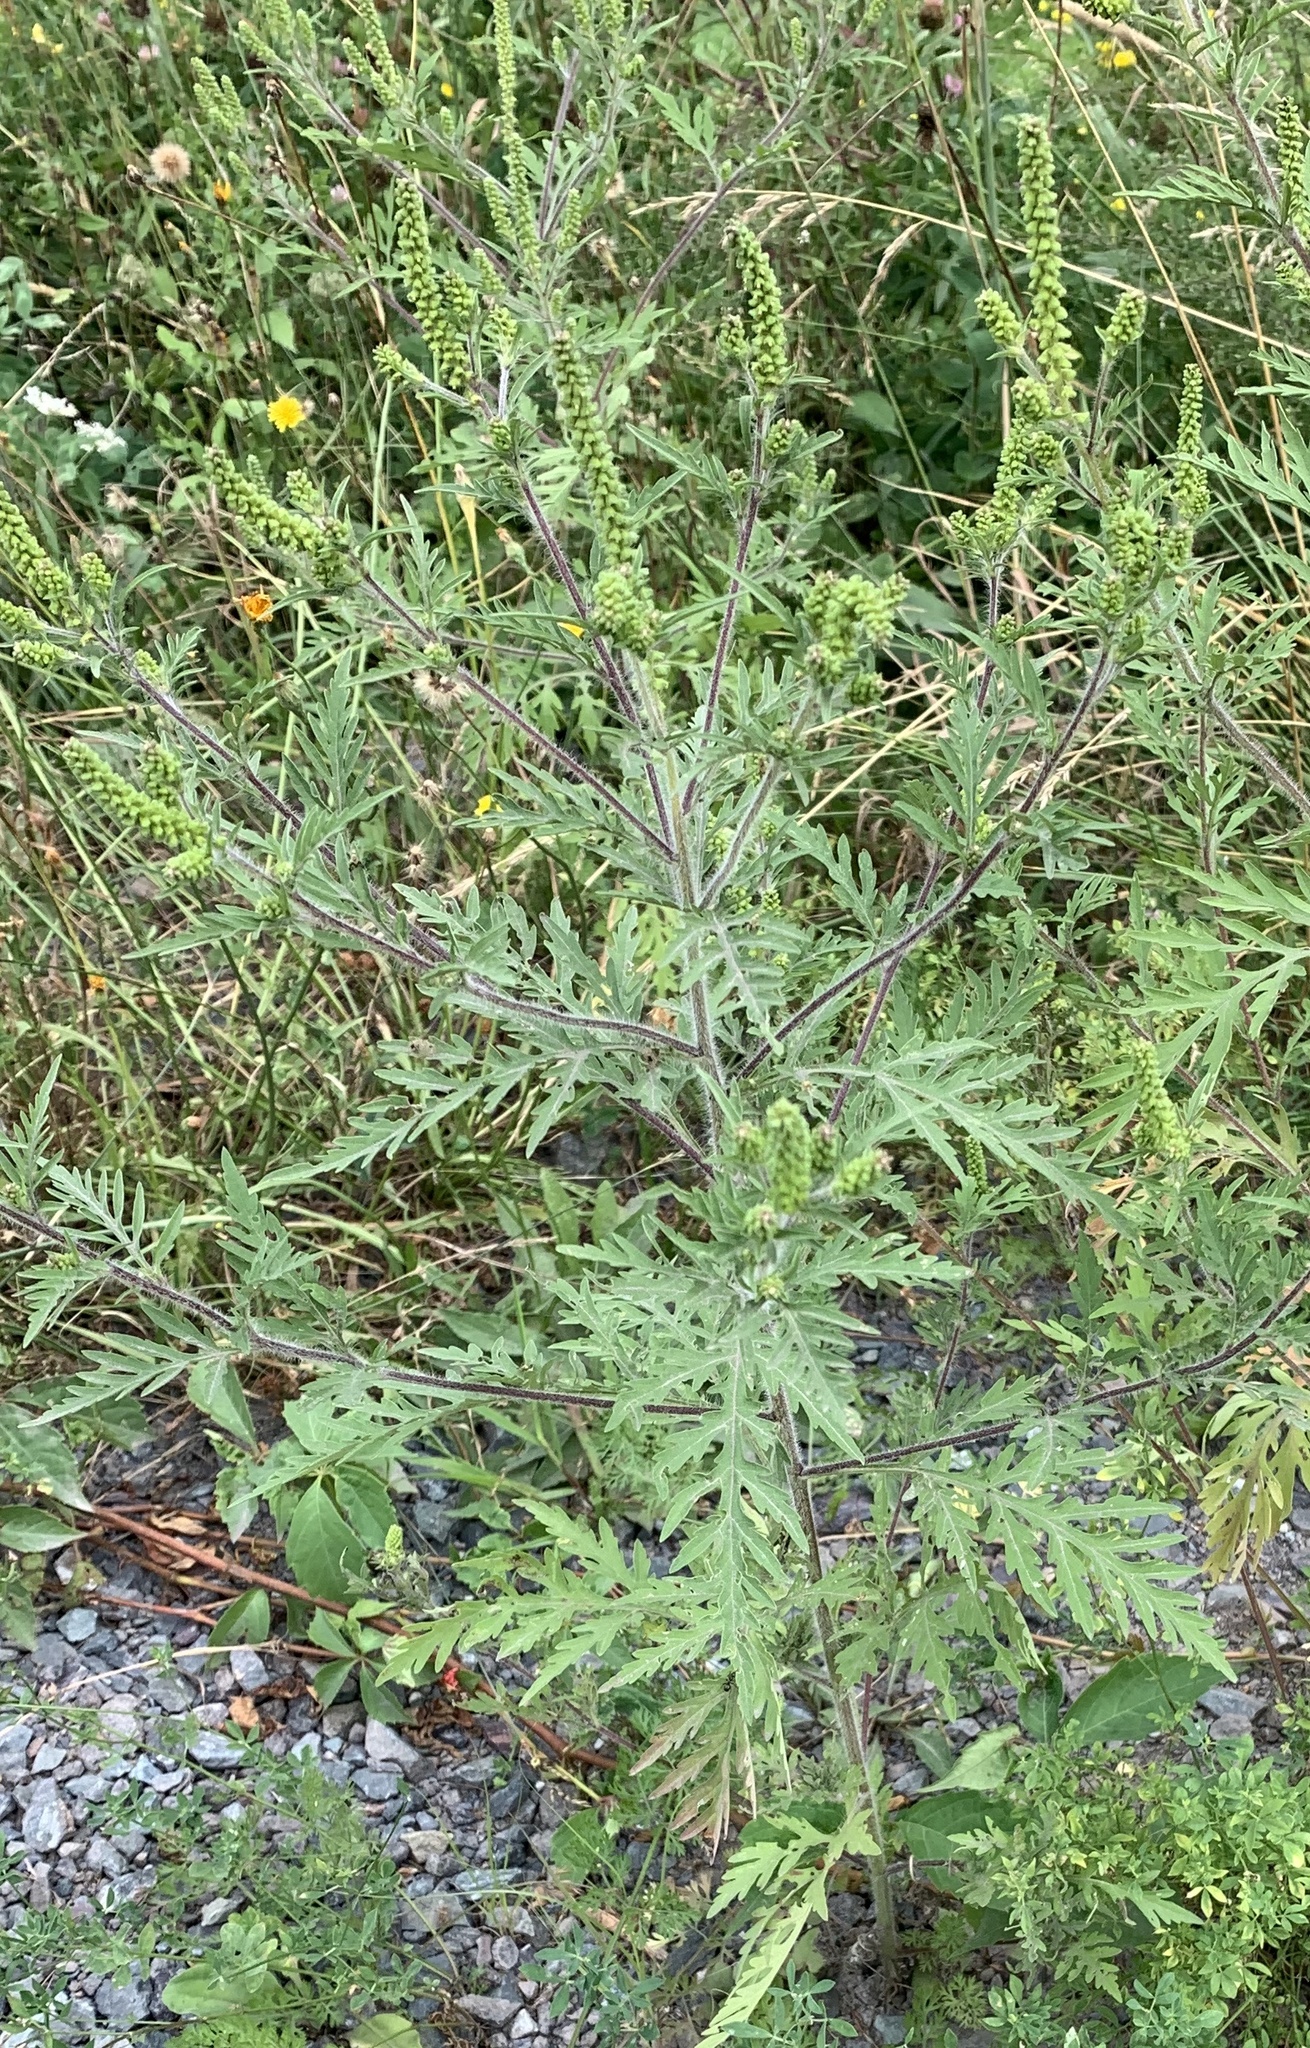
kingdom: Plantae
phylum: Tracheophyta
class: Magnoliopsida
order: Asterales
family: Asteraceae
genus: Ambrosia
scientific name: Ambrosia artemisiifolia
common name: Annual ragweed
